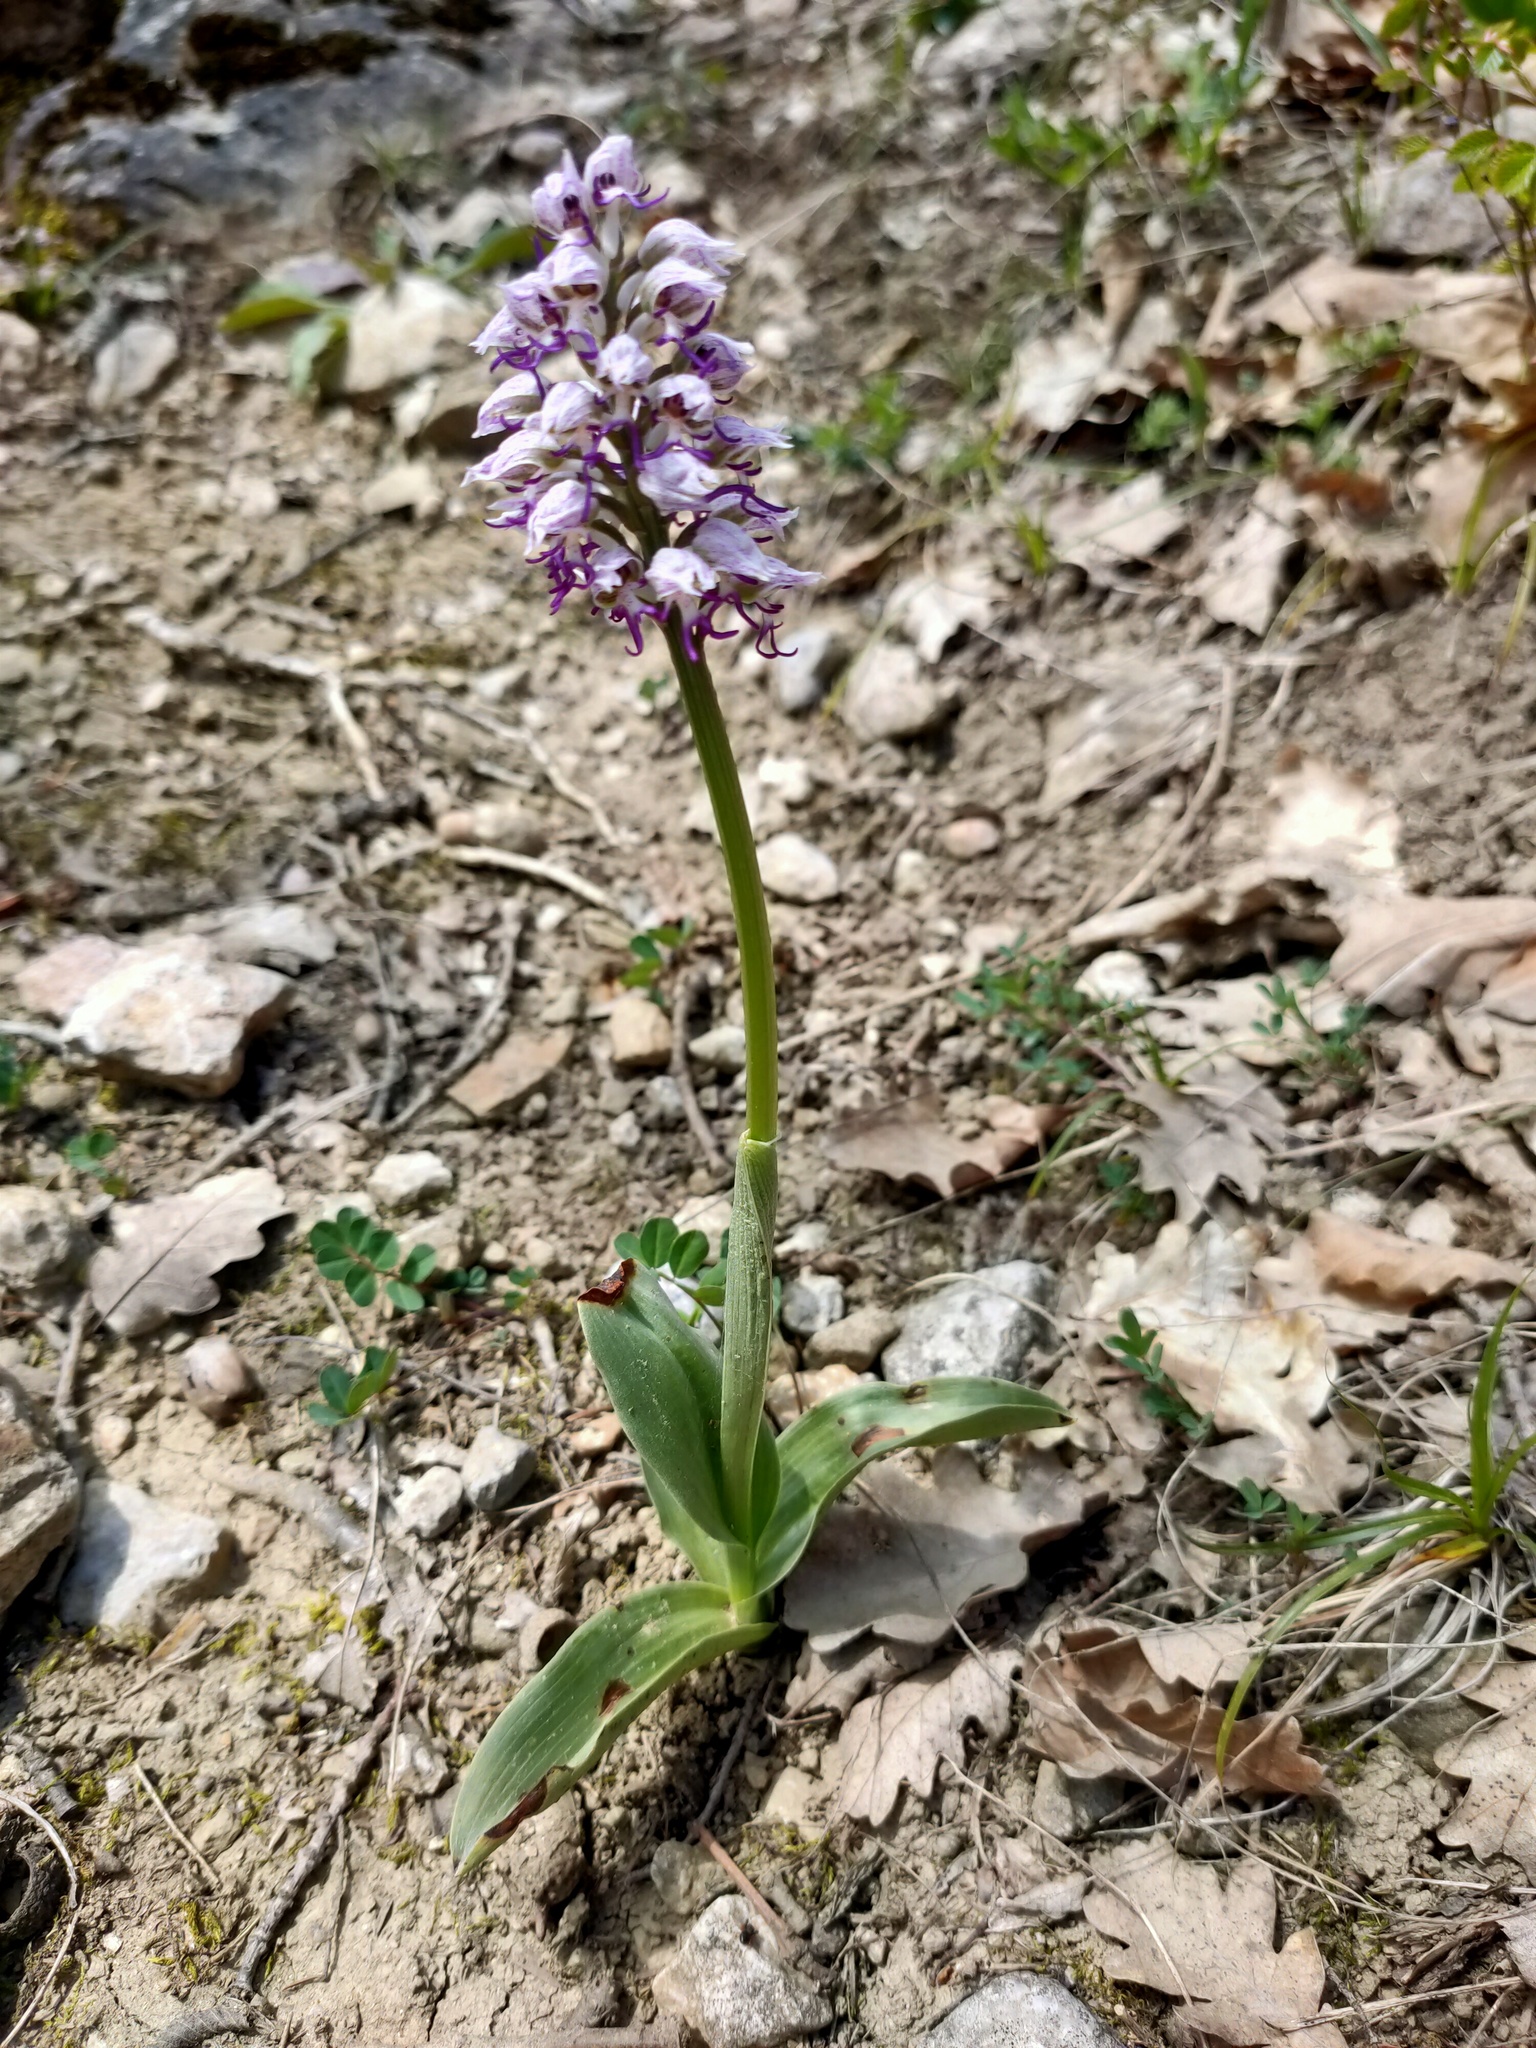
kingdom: Plantae
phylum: Tracheophyta
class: Liliopsida
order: Asparagales
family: Orchidaceae
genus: Orchis
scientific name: Orchis simia
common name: Monkey orchid
